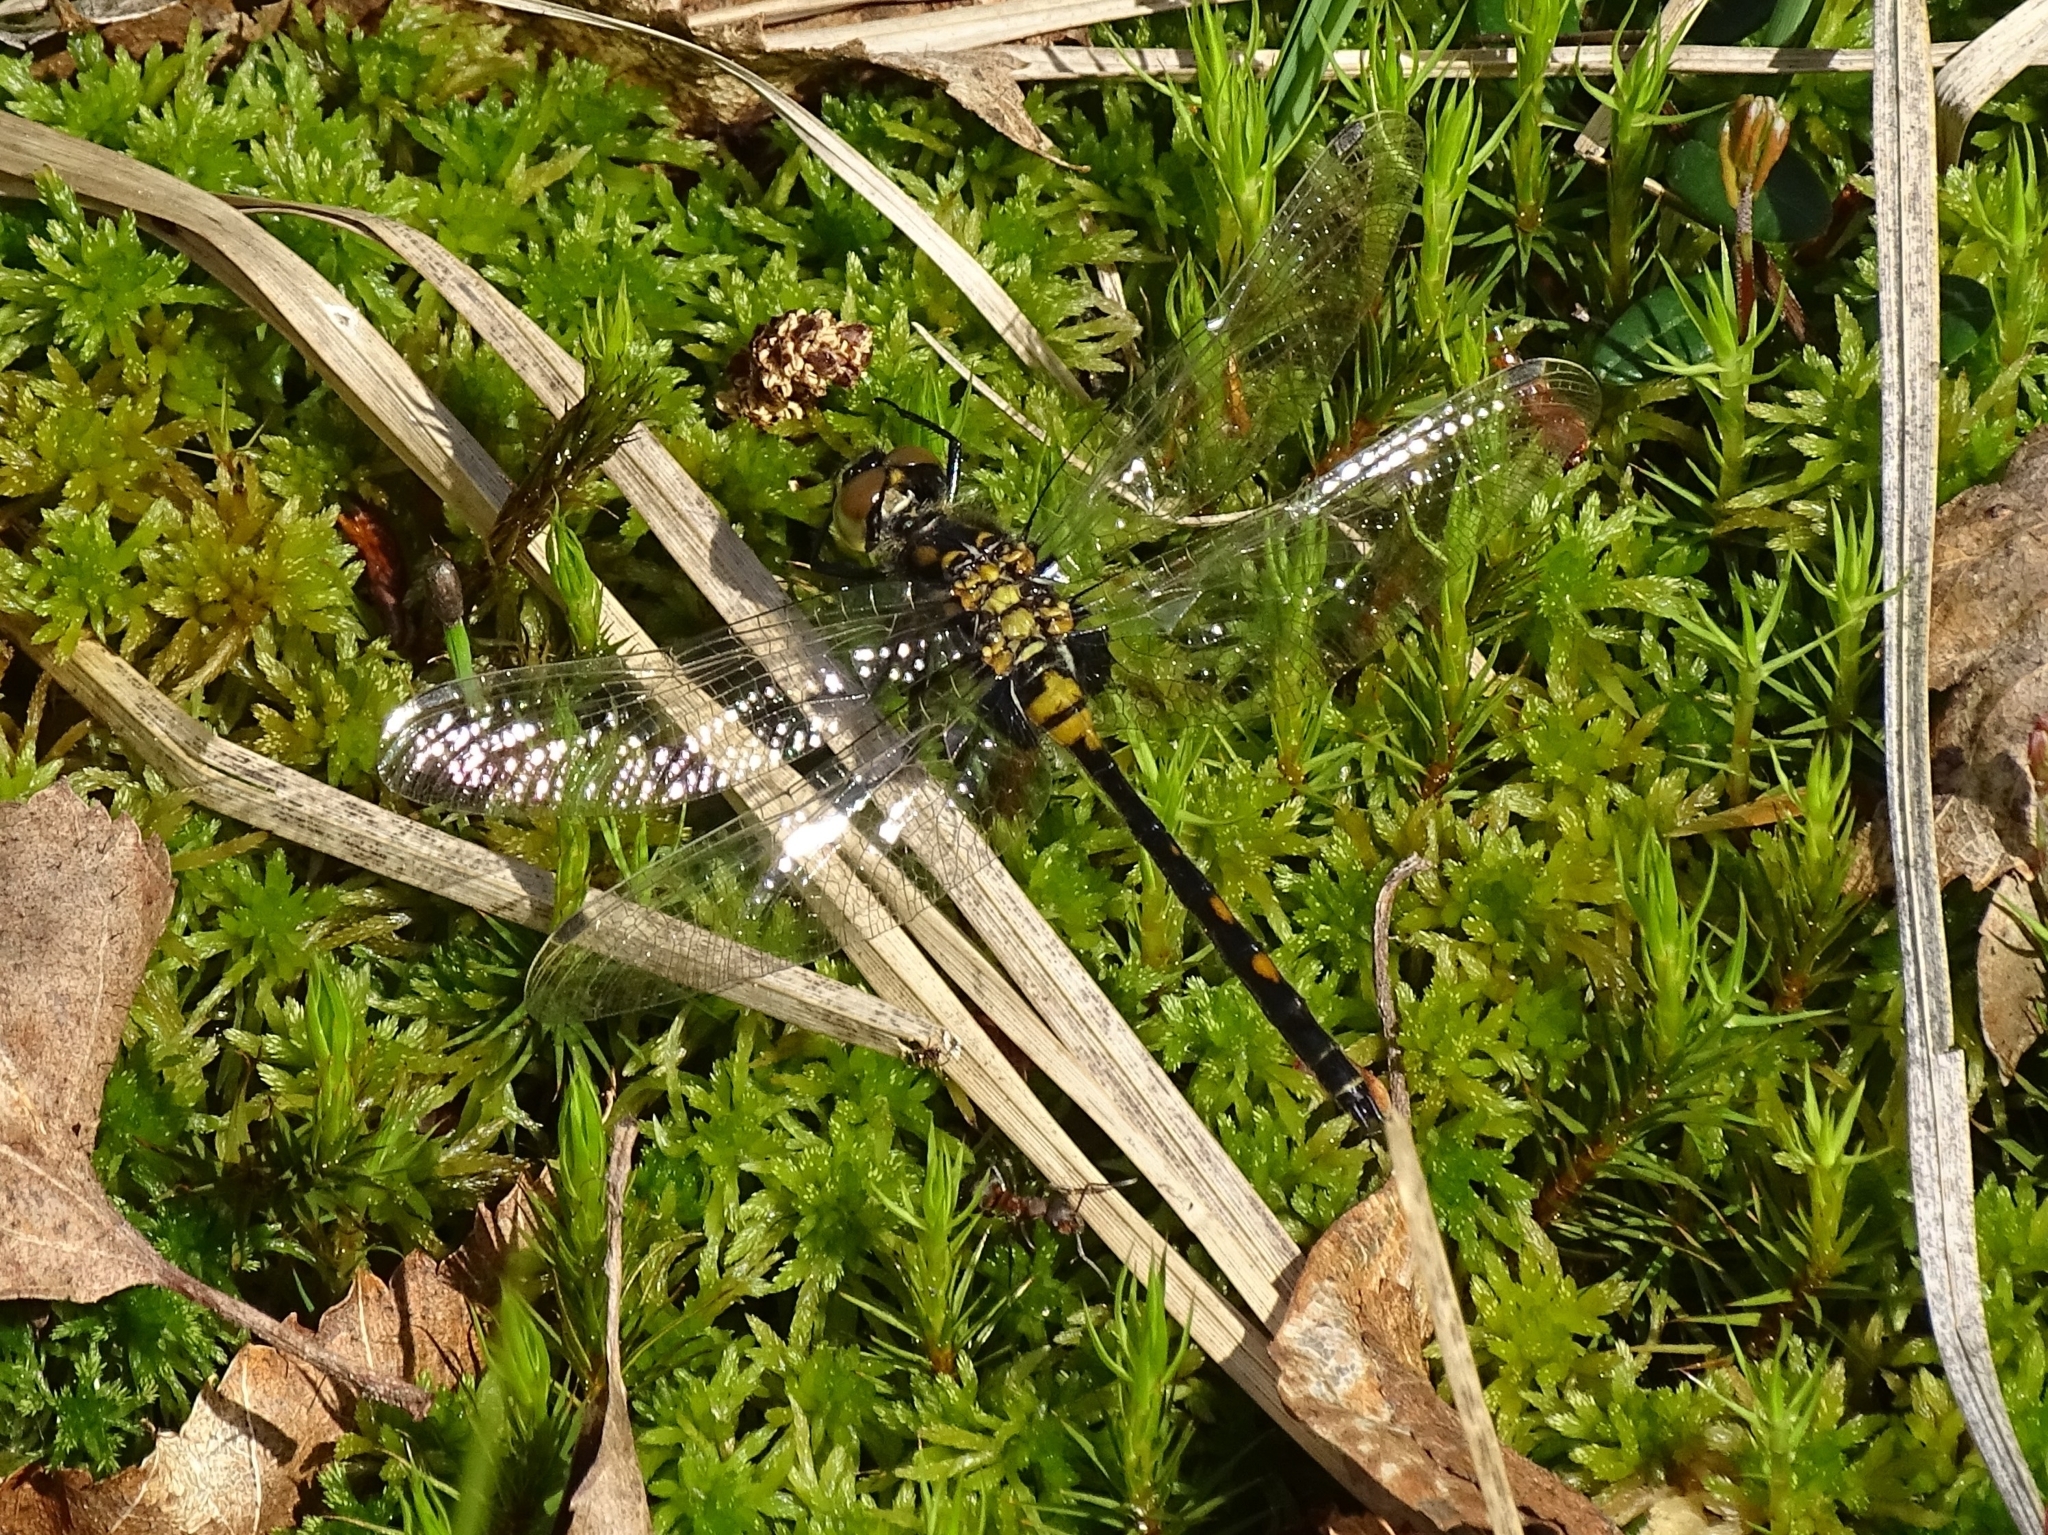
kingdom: Animalia
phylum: Arthropoda
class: Insecta
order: Odonata
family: Libellulidae
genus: Leucorrhinia
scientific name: Leucorrhinia dubia
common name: White-faced darter
